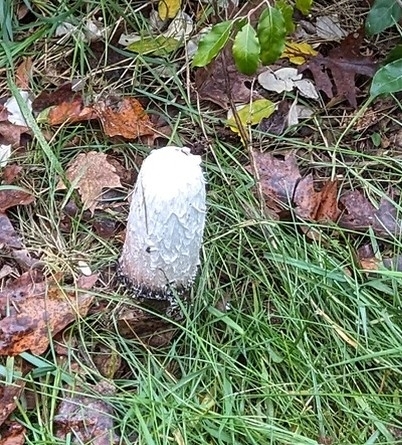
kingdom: Fungi
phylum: Basidiomycota
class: Agaricomycetes
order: Agaricales
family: Agaricaceae
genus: Coprinus
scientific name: Coprinus comatus
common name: Lawyer's wig
